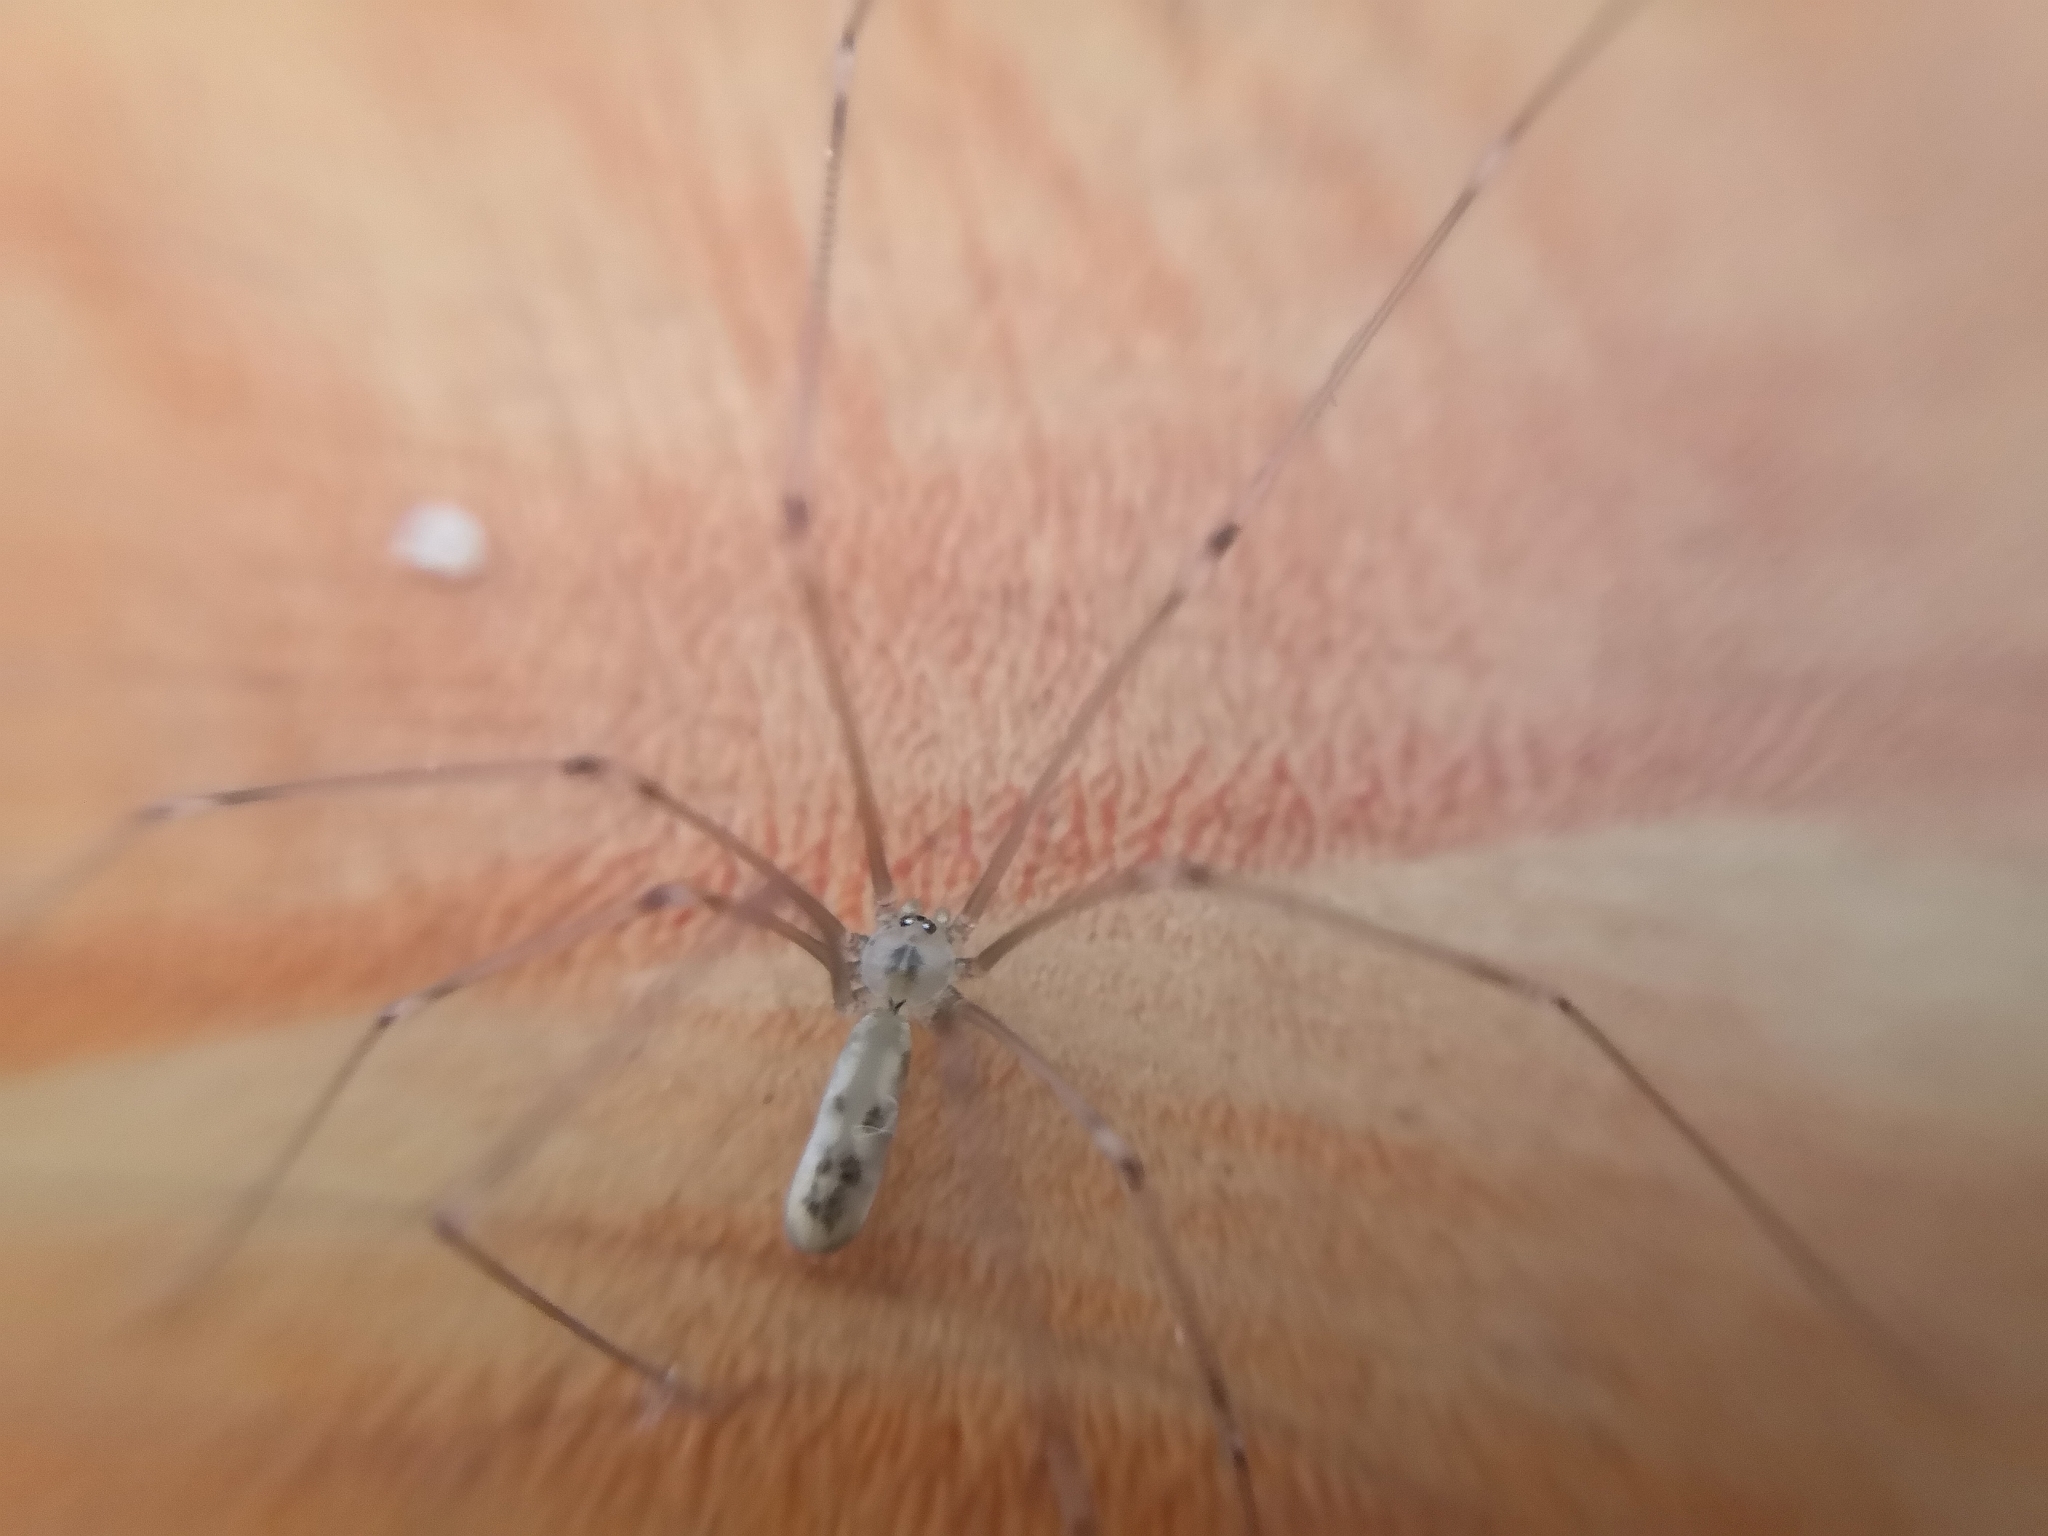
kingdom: Animalia
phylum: Arthropoda
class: Arachnida
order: Araneae
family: Pholcidae
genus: Pholcus
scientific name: Pholcus phalangioides
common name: Longbodied cellar spider
